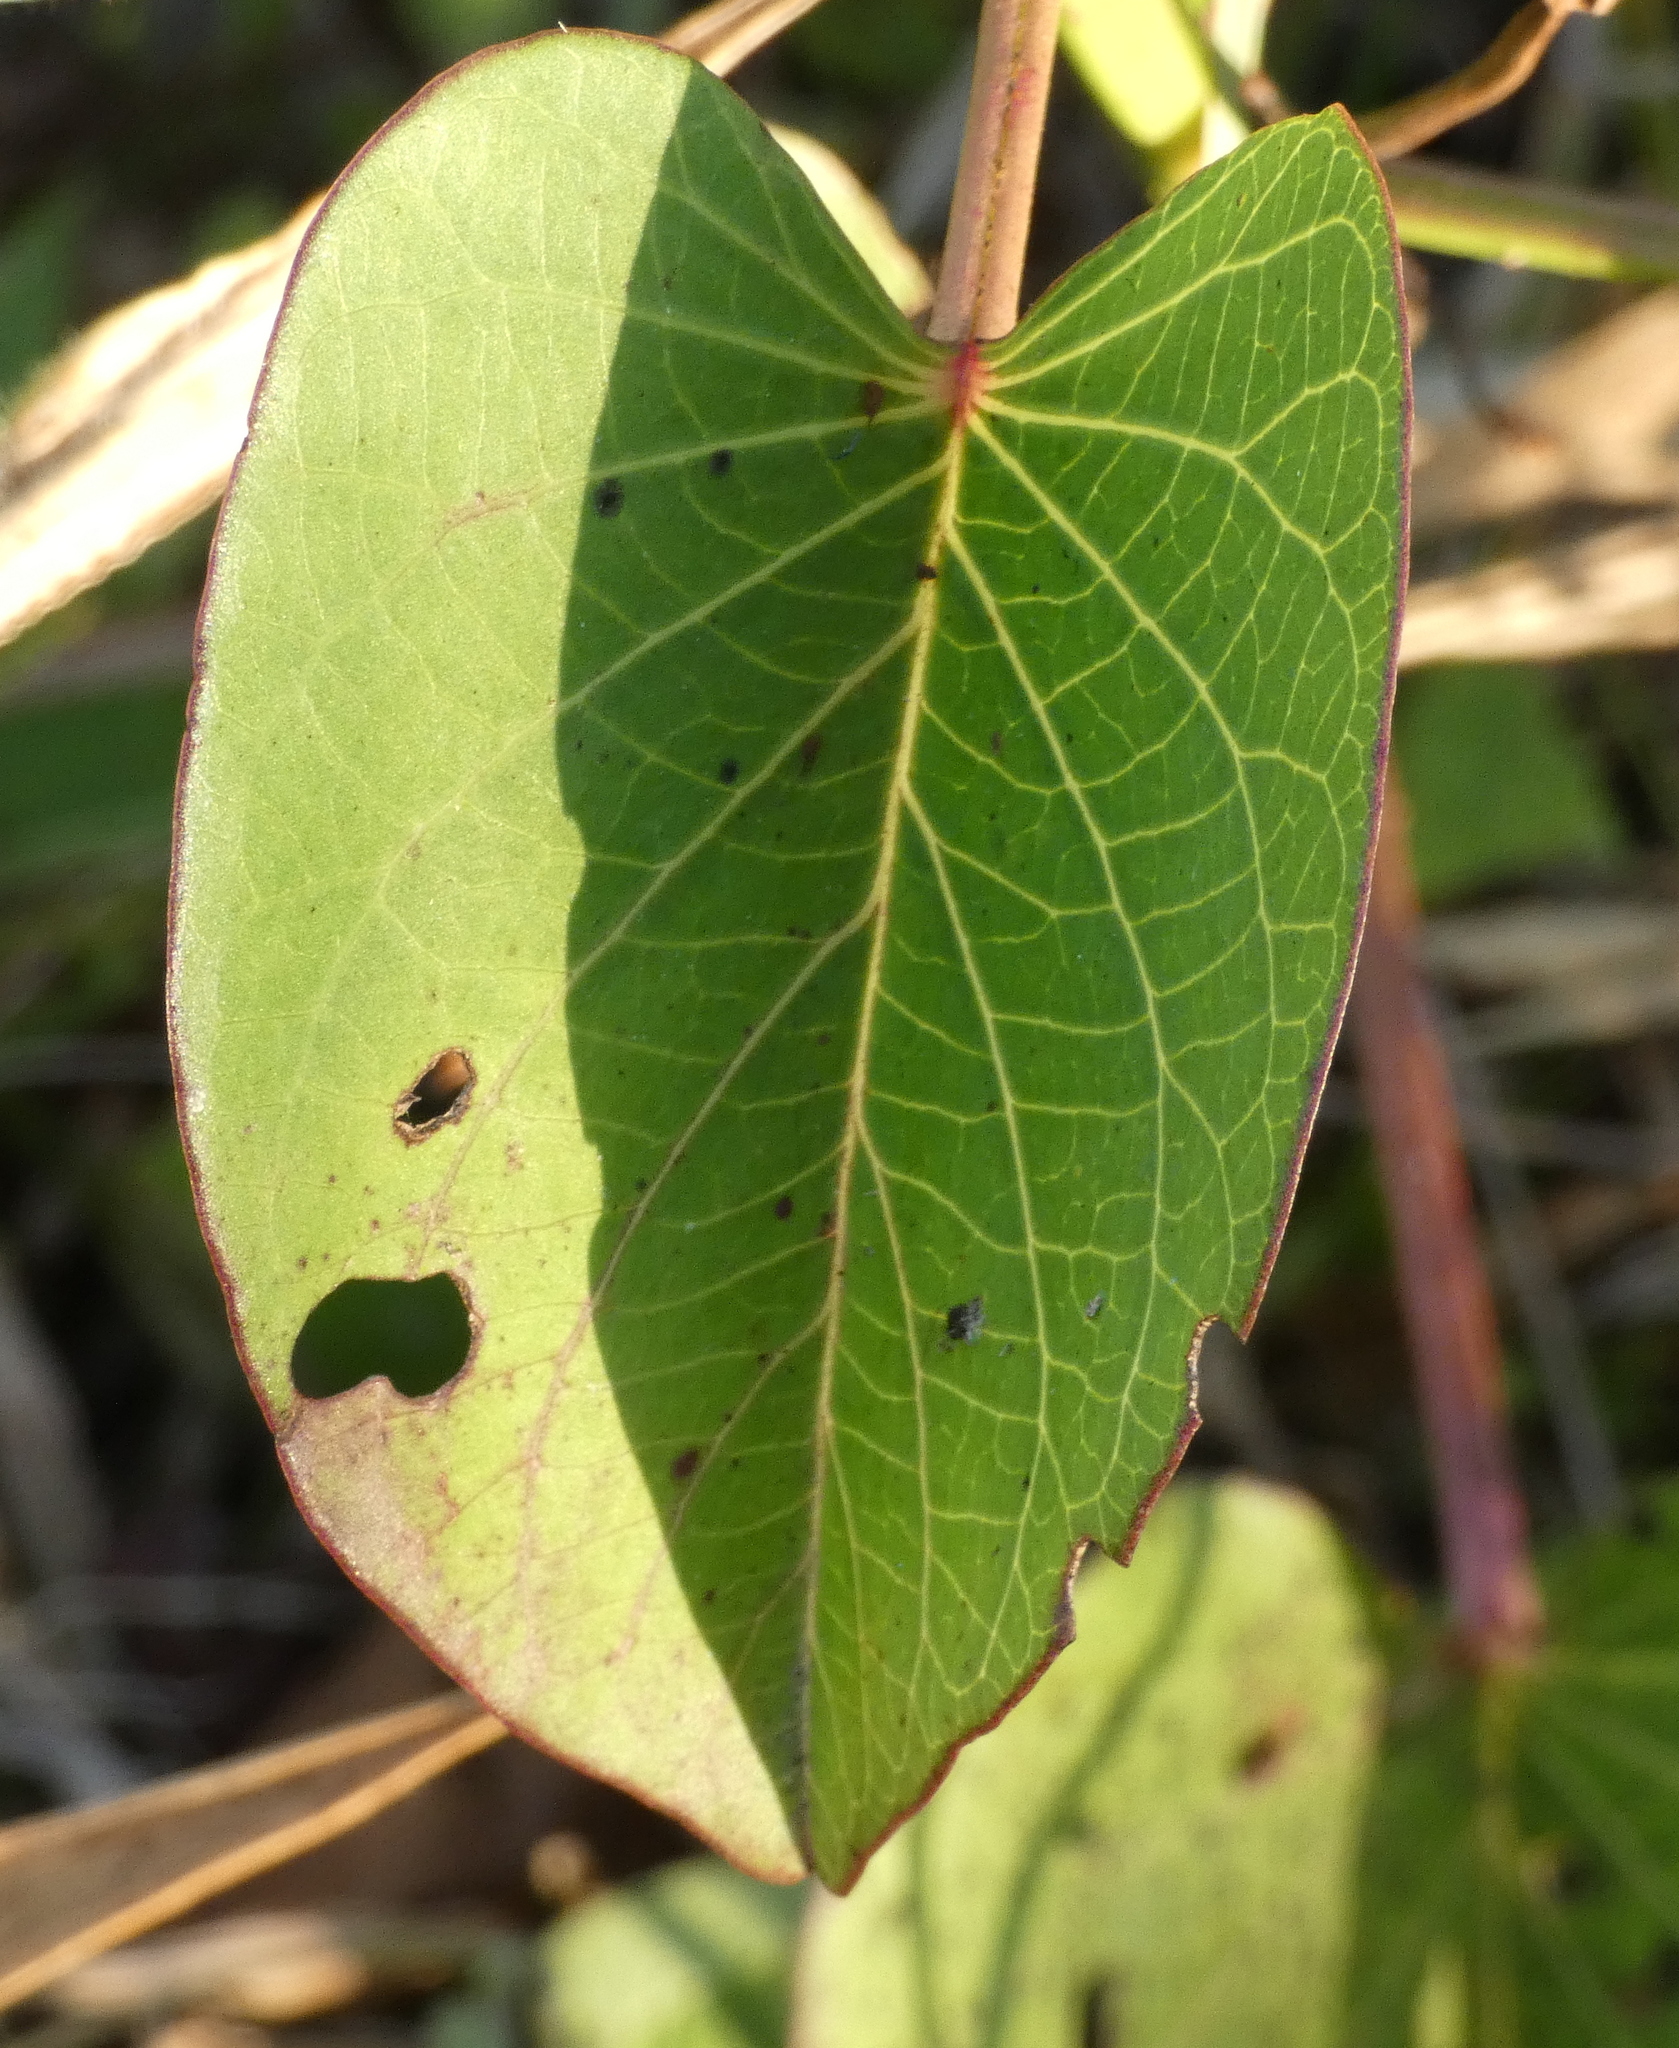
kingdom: Plantae
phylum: Tracheophyta
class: Magnoliopsida
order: Solanales
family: Convolvulaceae
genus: Ipomoea
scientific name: Ipomoea asarifolia
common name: Ginger-leaf morning-glory
